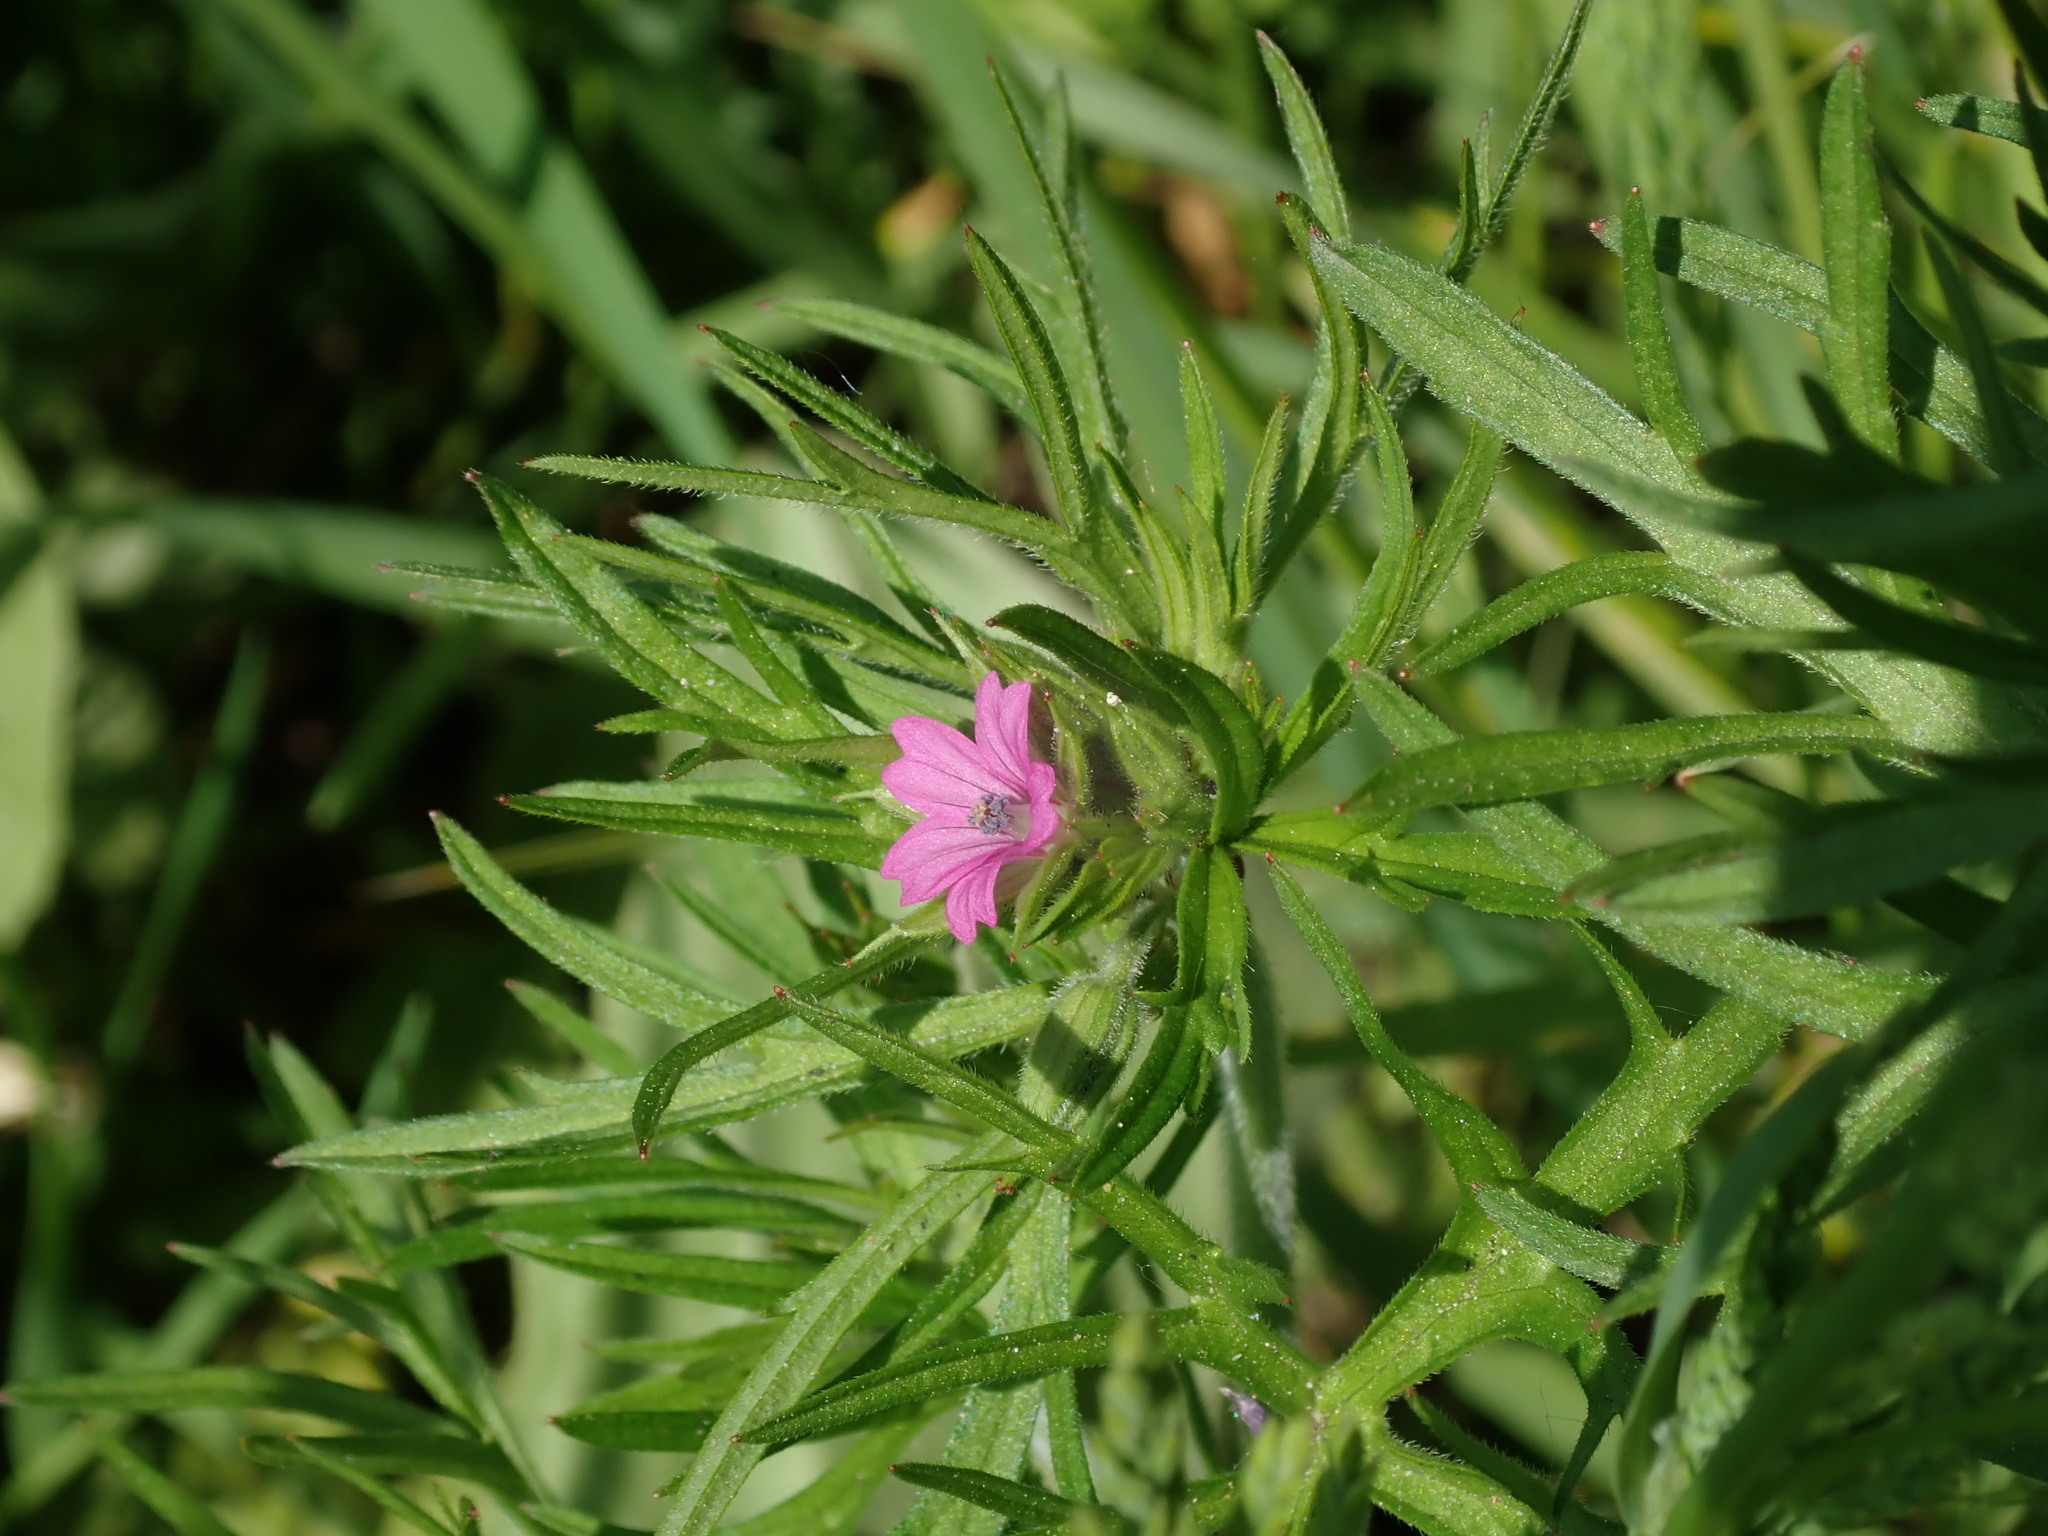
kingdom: Plantae
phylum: Tracheophyta
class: Magnoliopsida
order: Geraniales
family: Geraniaceae
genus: Geranium
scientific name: Geranium dissectum
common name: Cut-leaved crane's-bill
